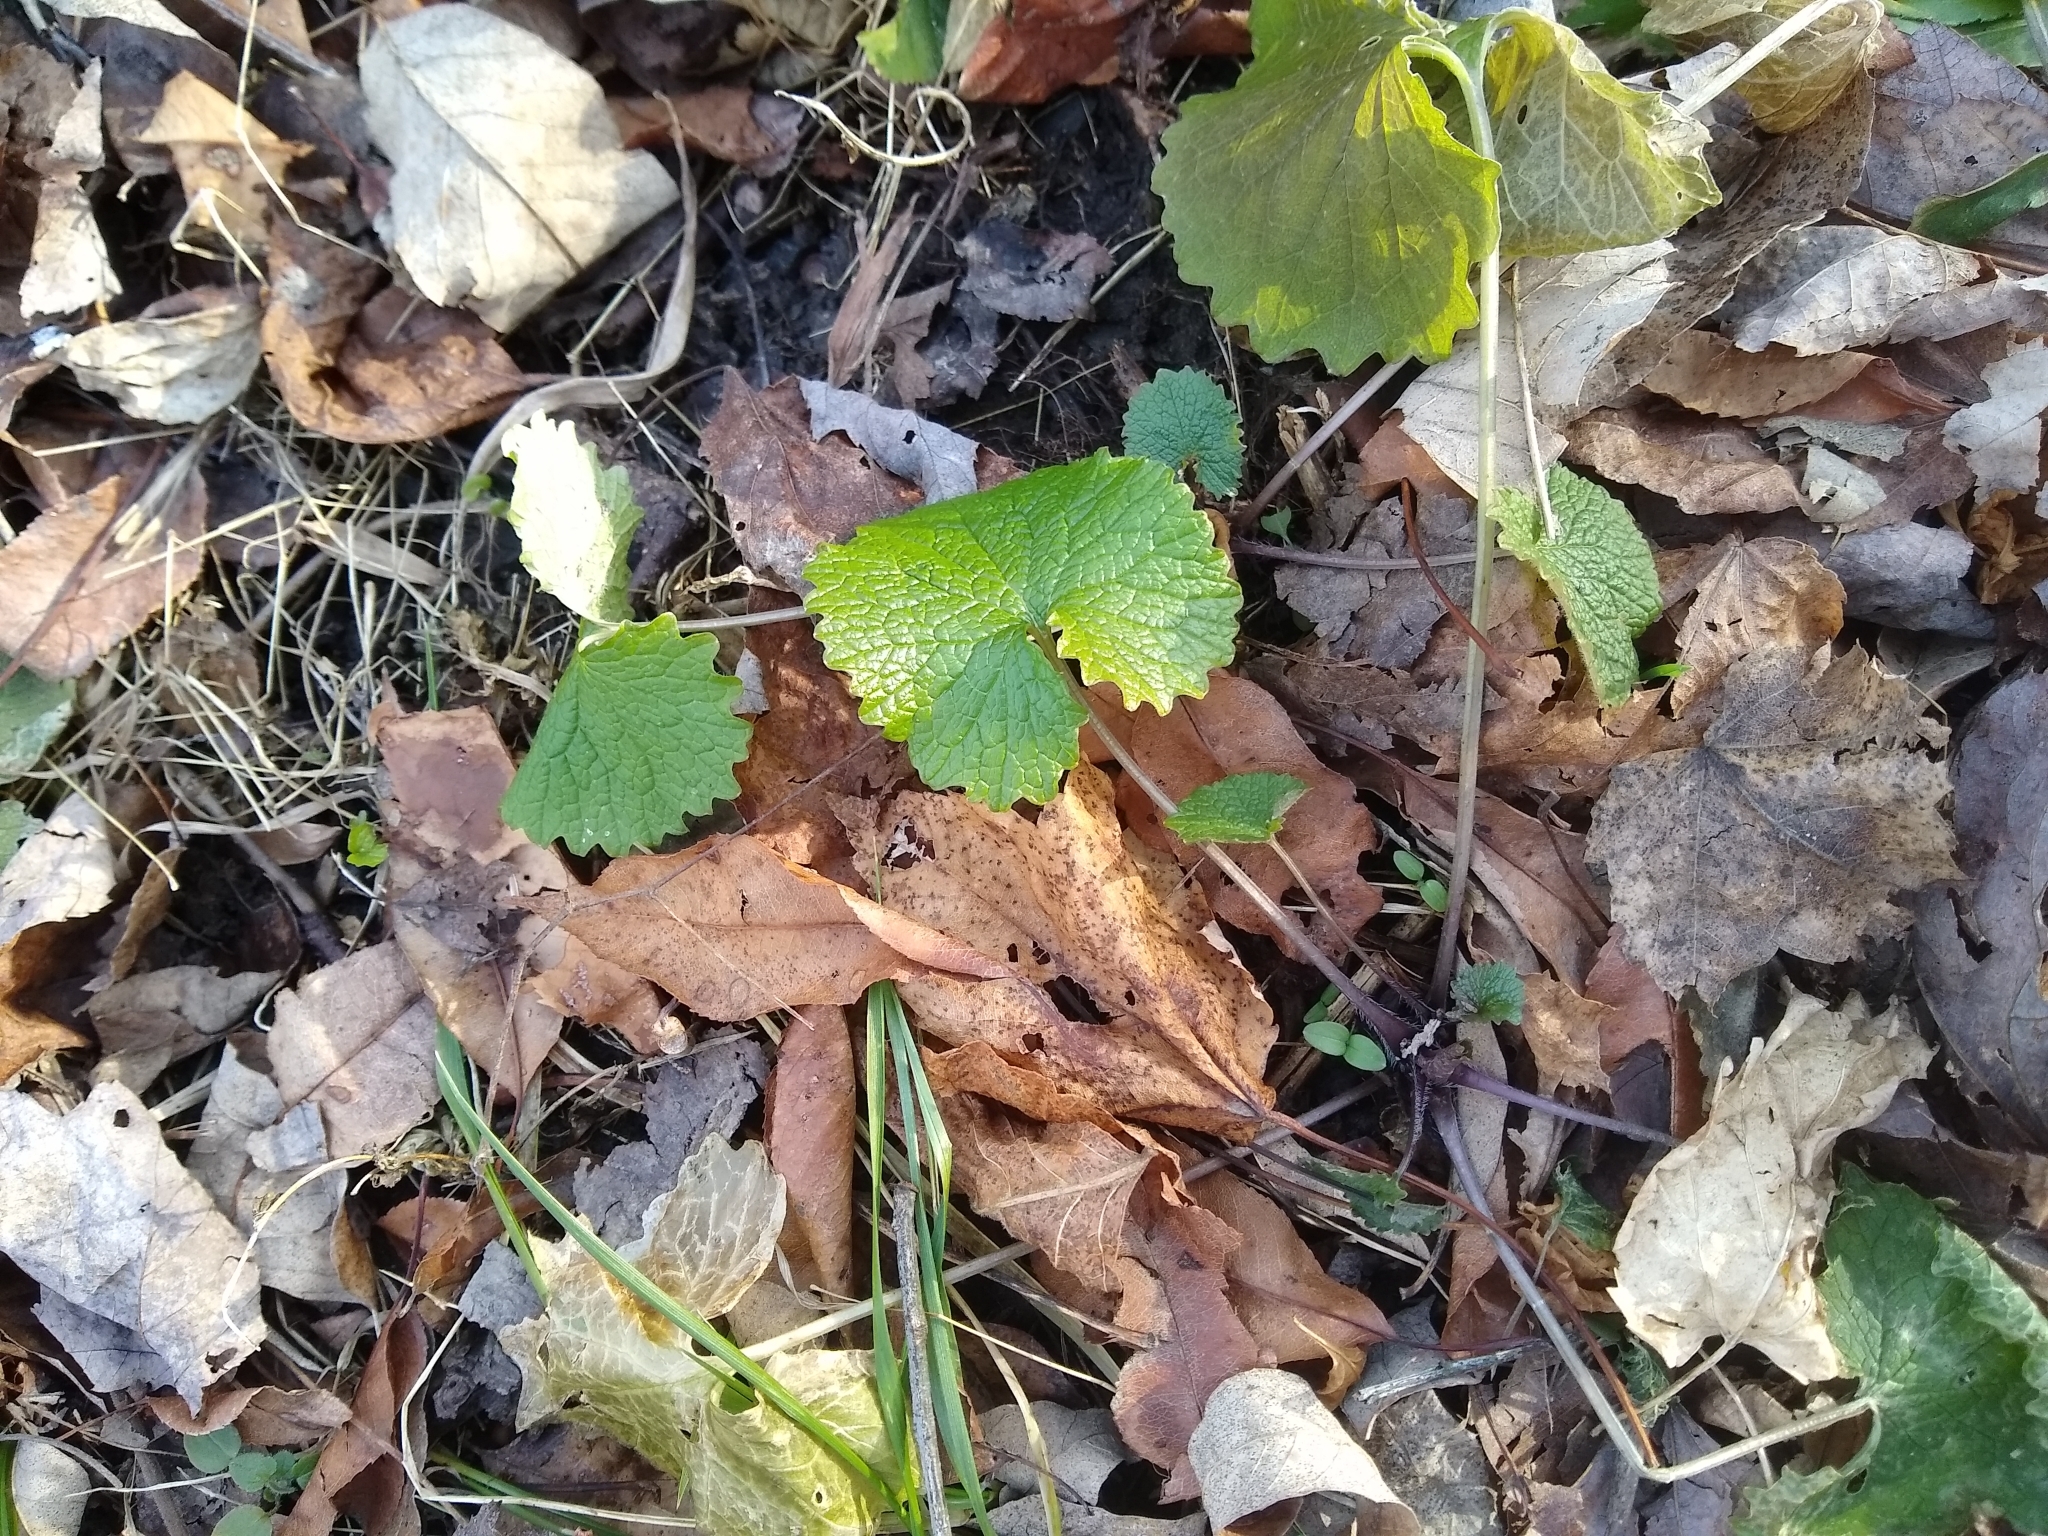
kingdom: Plantae
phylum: Tracheophyta
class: Magnoliopsida
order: Brassicales
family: Brassicaceae
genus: Alliaria
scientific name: Alliaria petiolata
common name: Garlic mustard
